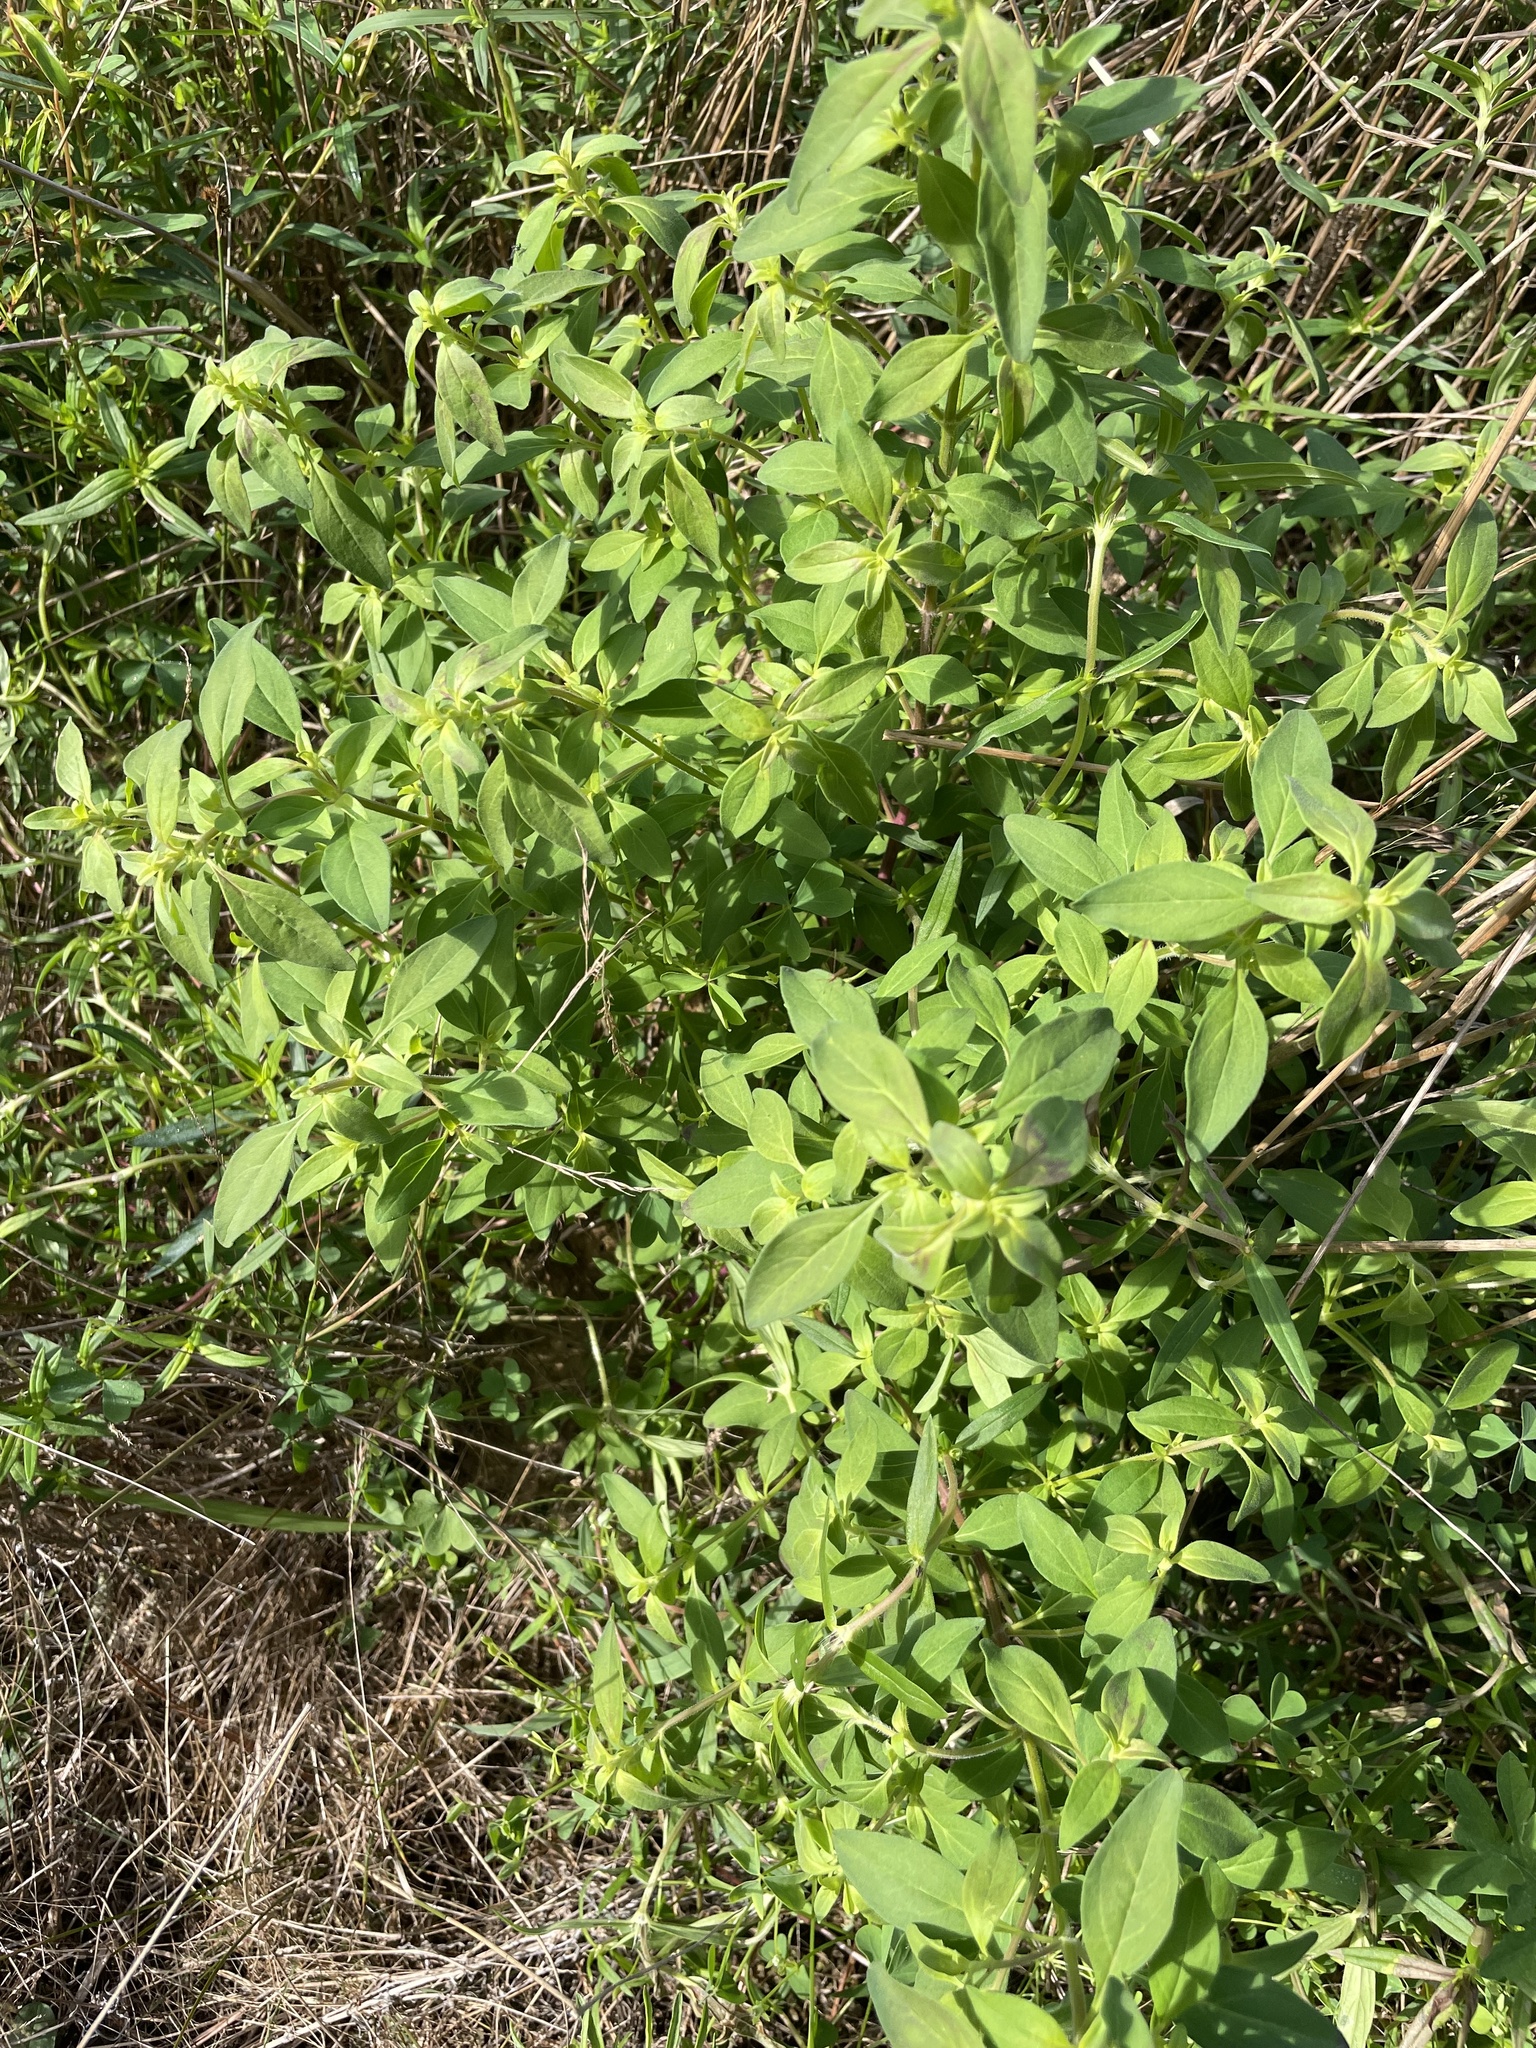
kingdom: Plantae
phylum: Tracheophyta
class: Magnoliopsida
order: Lamiales
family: Lamiaceae
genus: Trichostema
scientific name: Trichostema dichotomum
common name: Bastard pennyroyal
